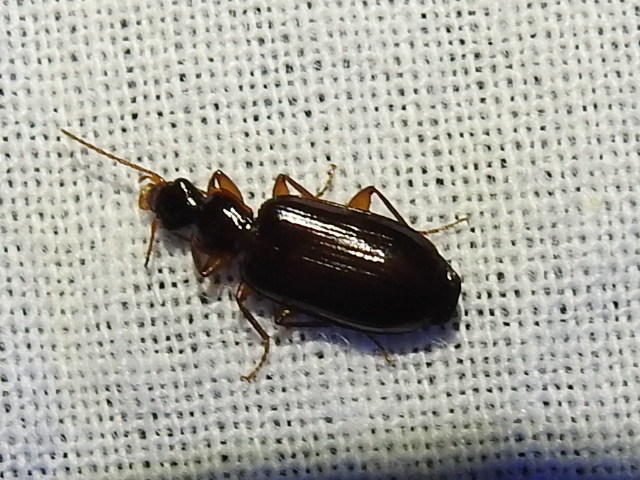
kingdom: Animalia
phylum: Arthropoda
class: Insecta
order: Coleoptera
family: Carabidae
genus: Dromius
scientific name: Dromius piceus
